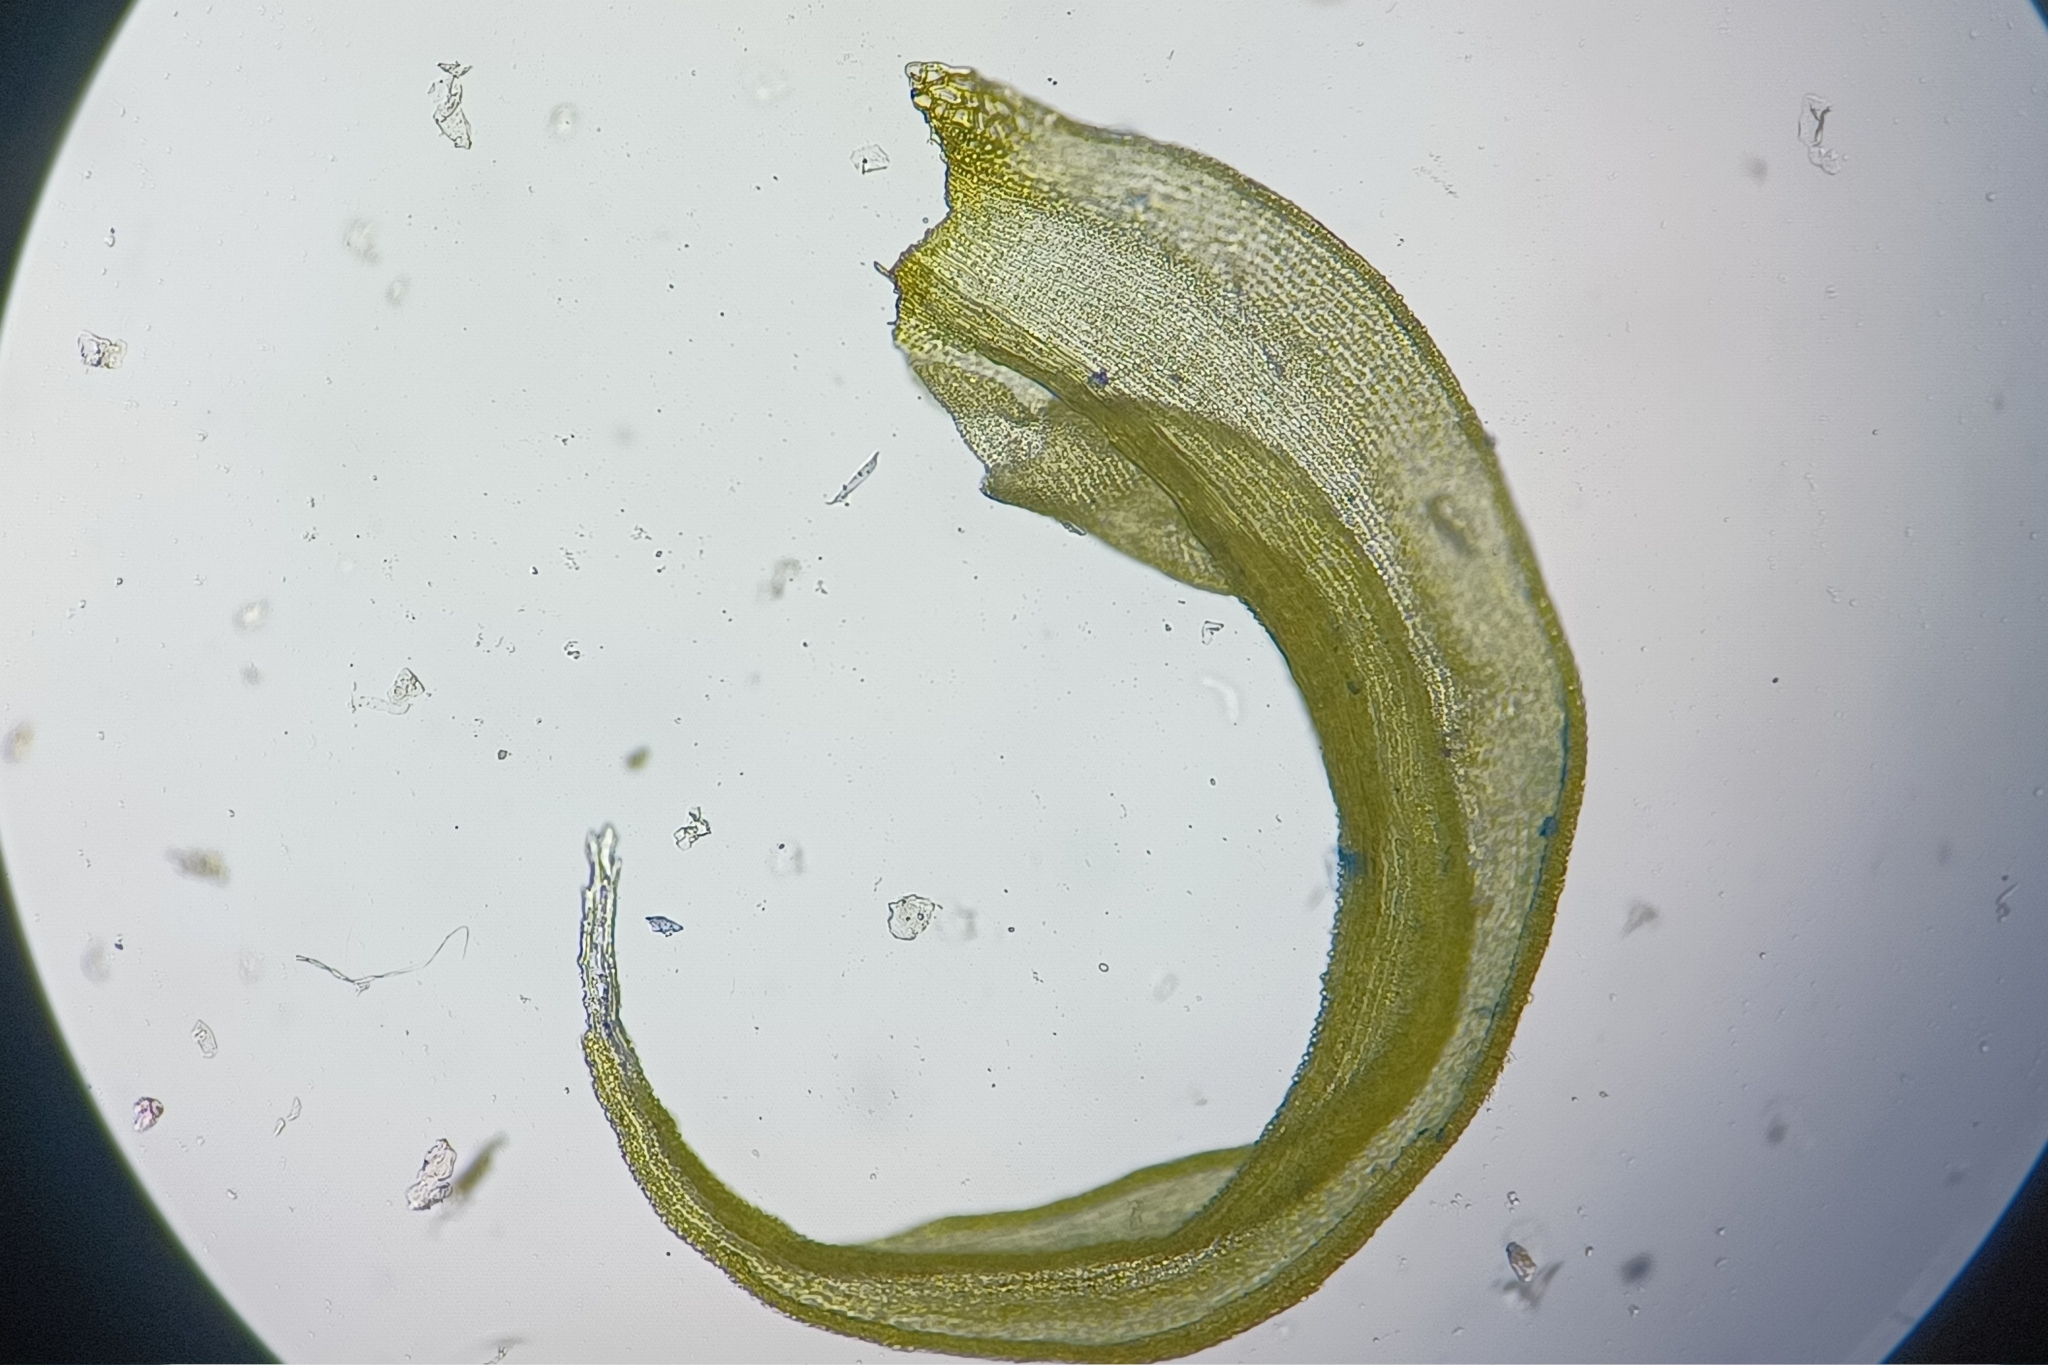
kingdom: Plantae
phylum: Bryophyta
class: Bryopsida
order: Grimmiales
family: Grimmiaceae
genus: Niphotrichum
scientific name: Niphotrichum canescens
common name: Hoary fringe-moss
